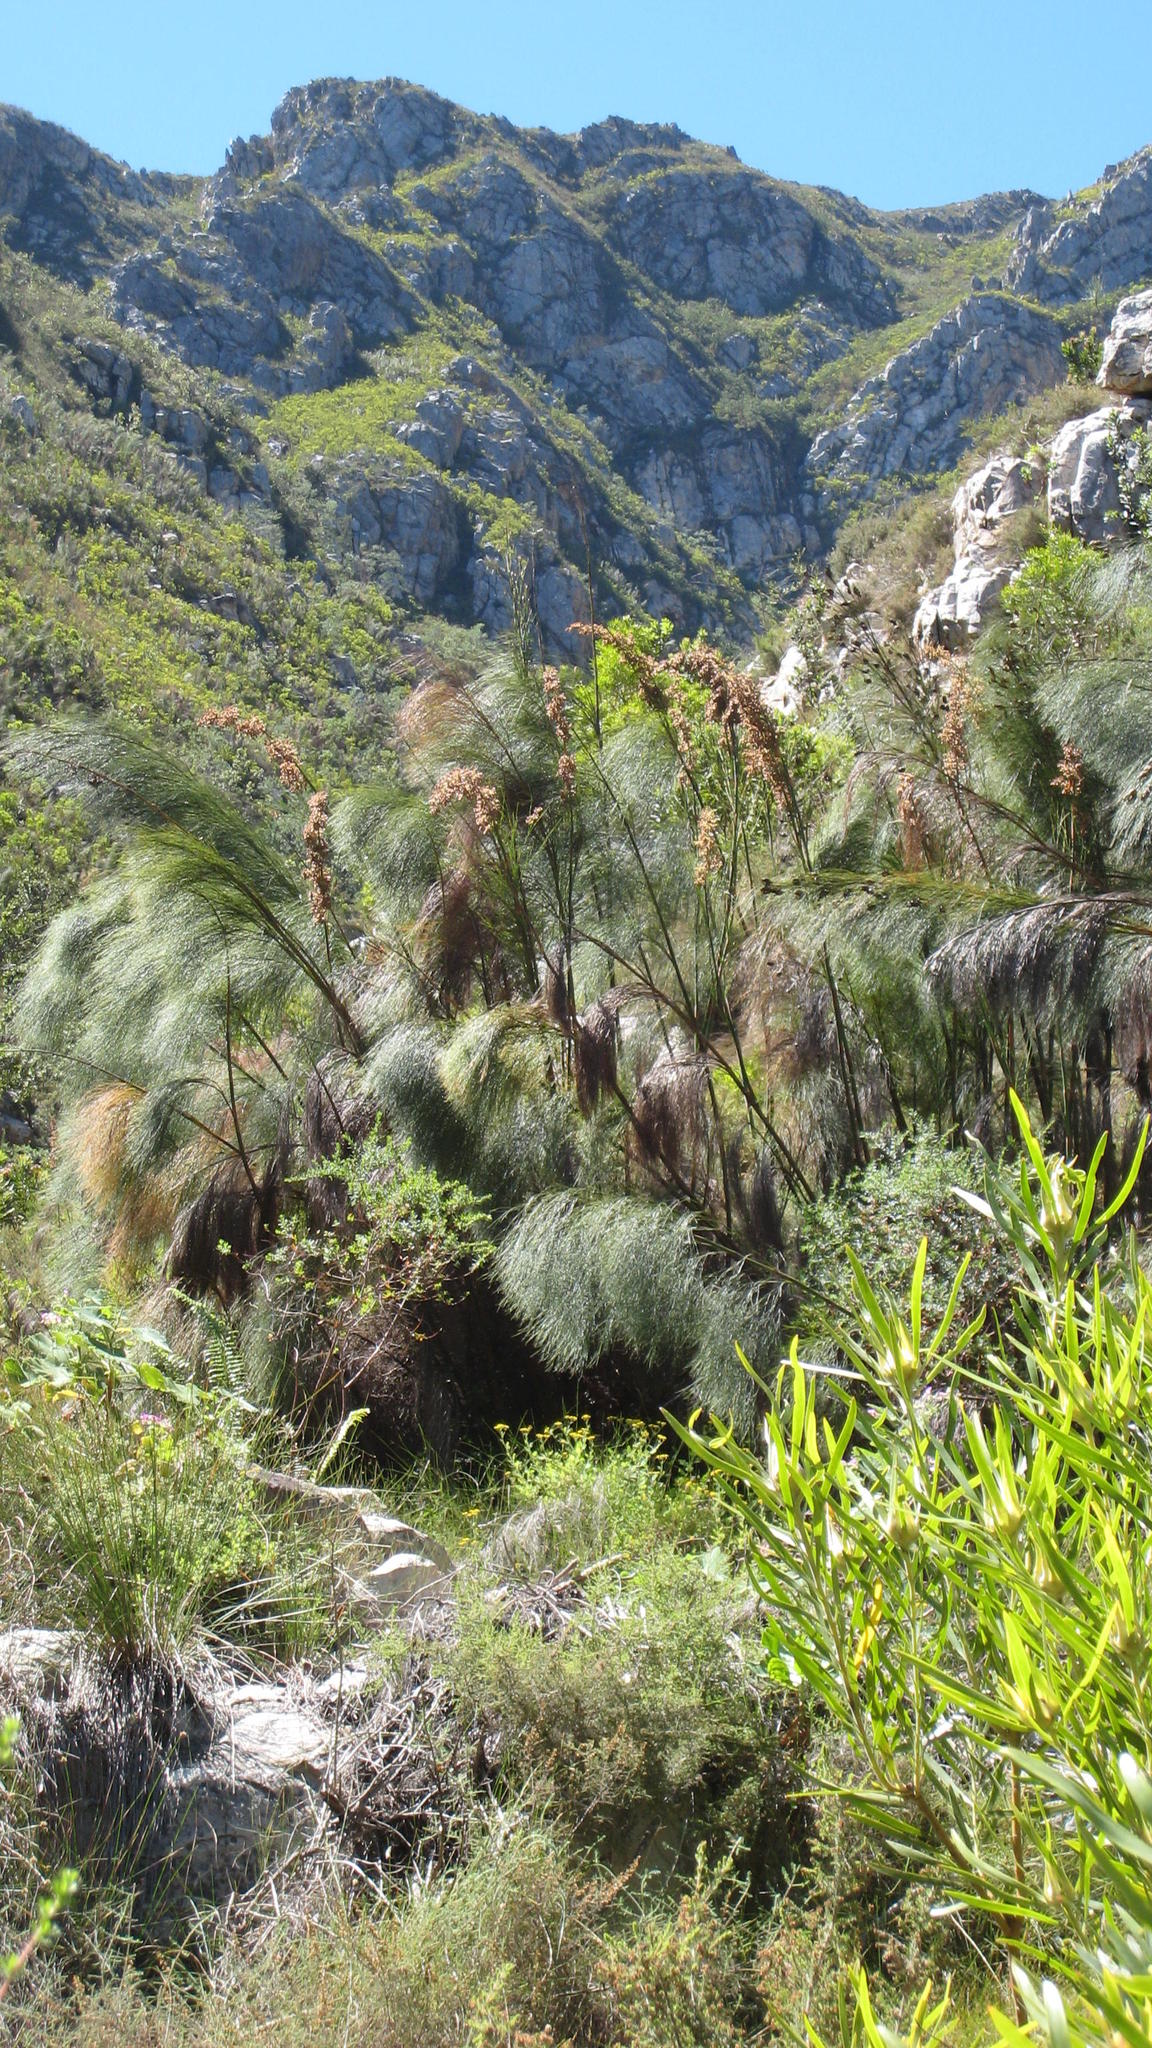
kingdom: Plantae
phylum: Tracheophyta
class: Liliopsida
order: Poales
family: Restionaceae
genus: Cannomois
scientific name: Cannomois grandis
